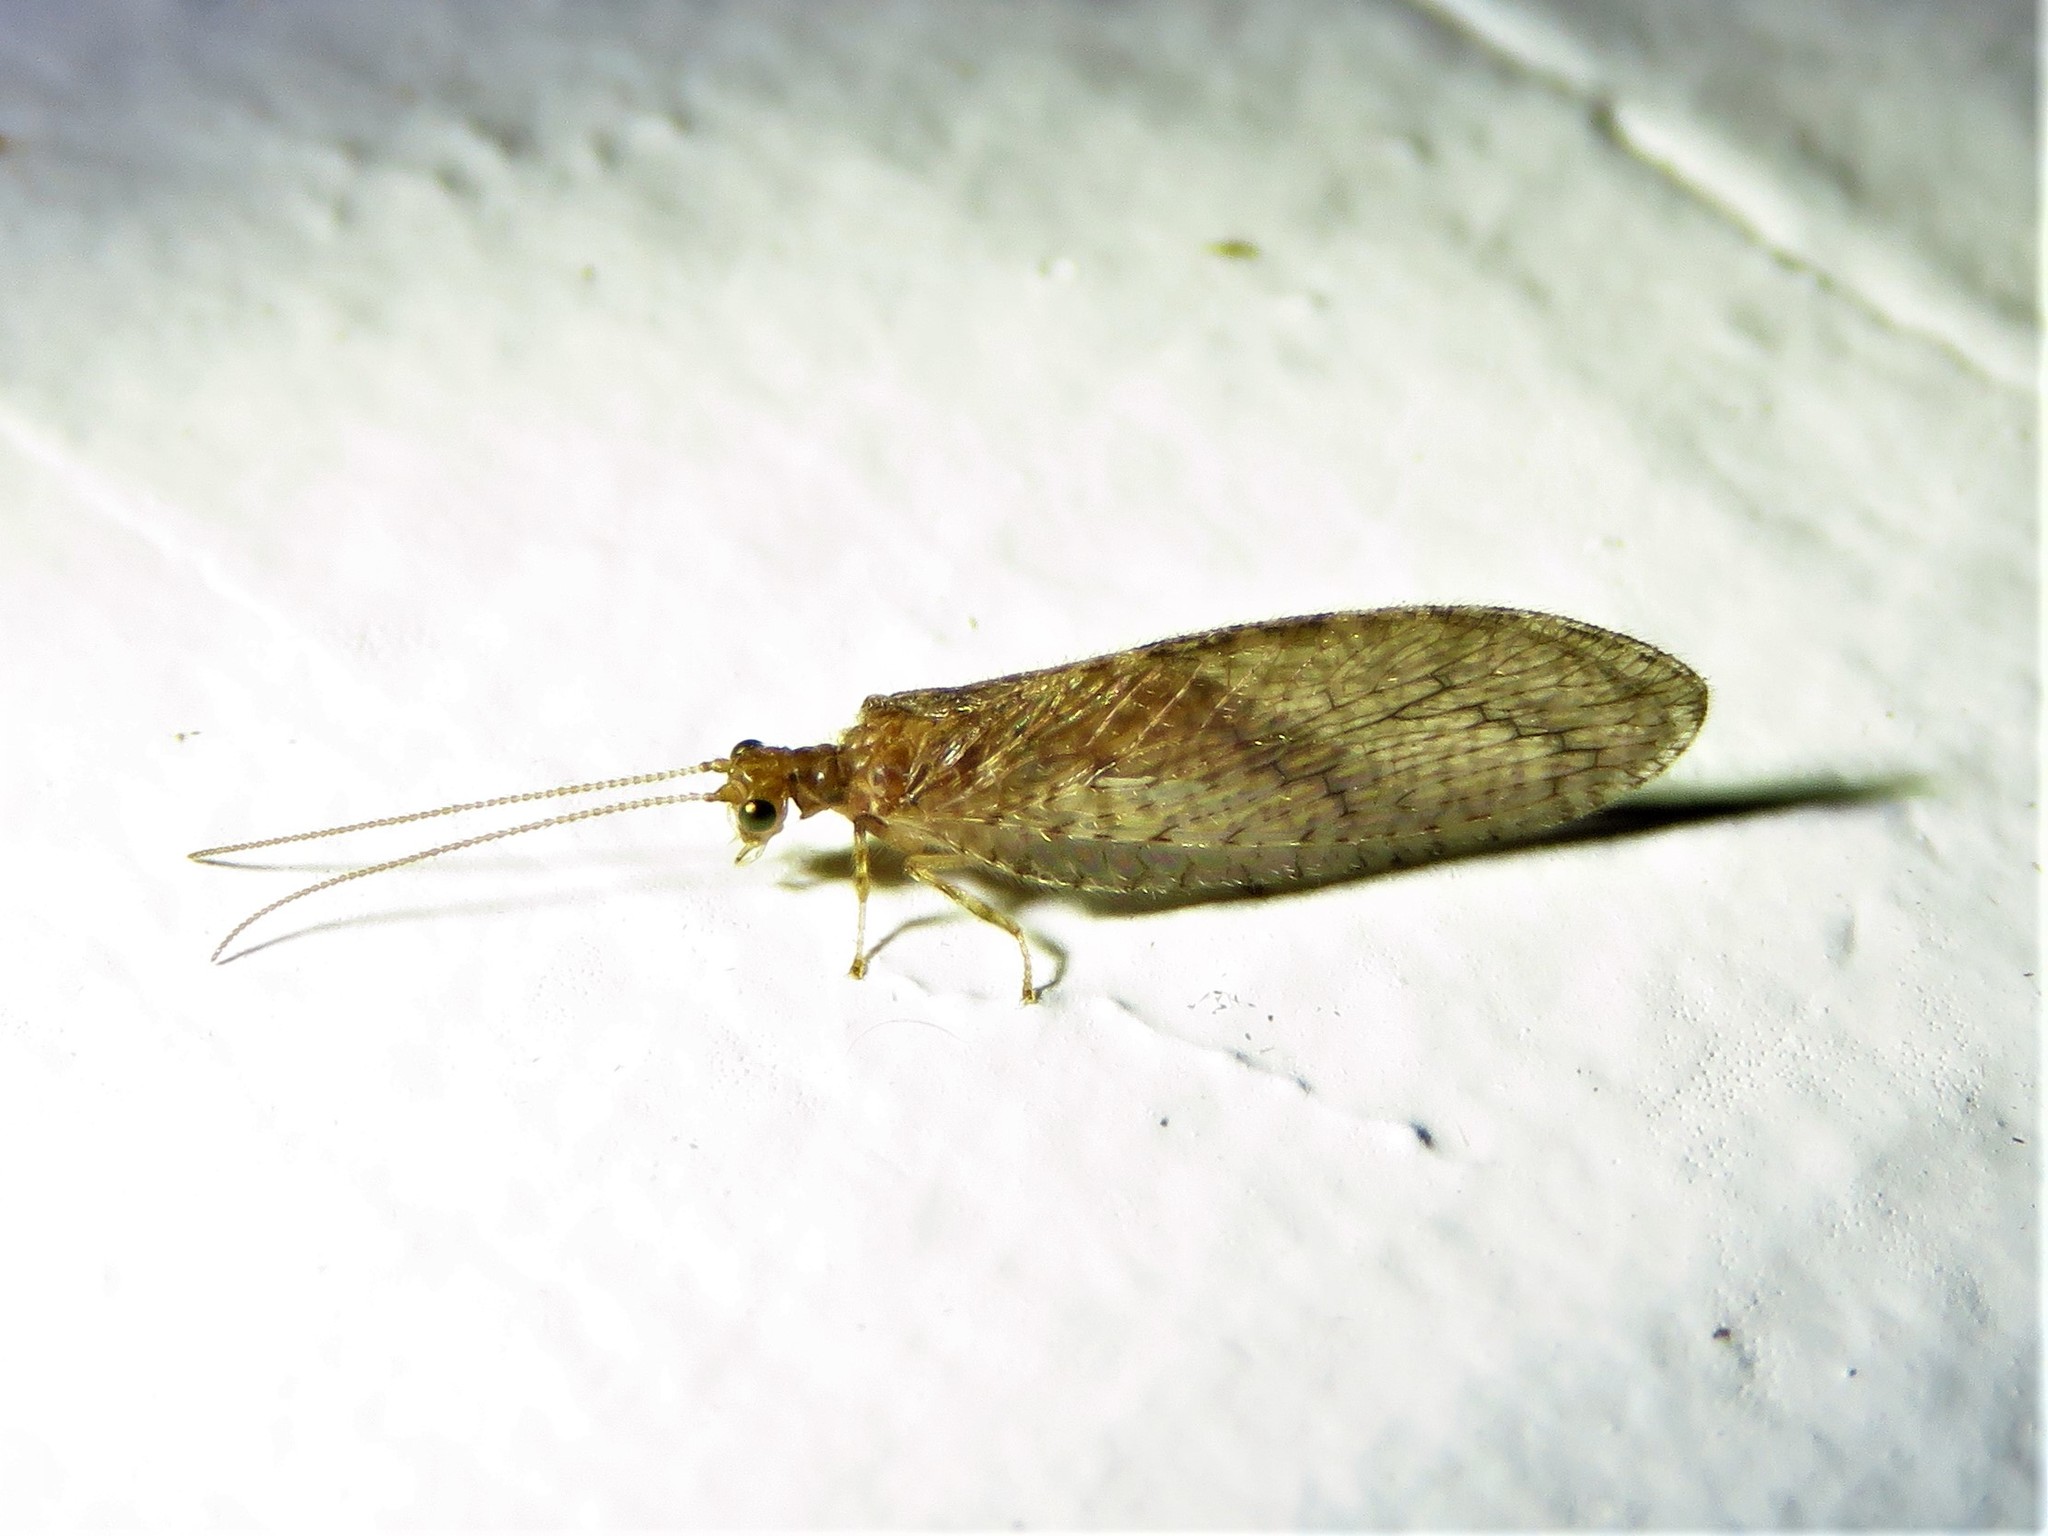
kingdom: Animalia
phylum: Arthropoda
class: Insecta
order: Neuroptera
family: Hemerobiidae
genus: Micromus
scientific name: Micromus posticus
